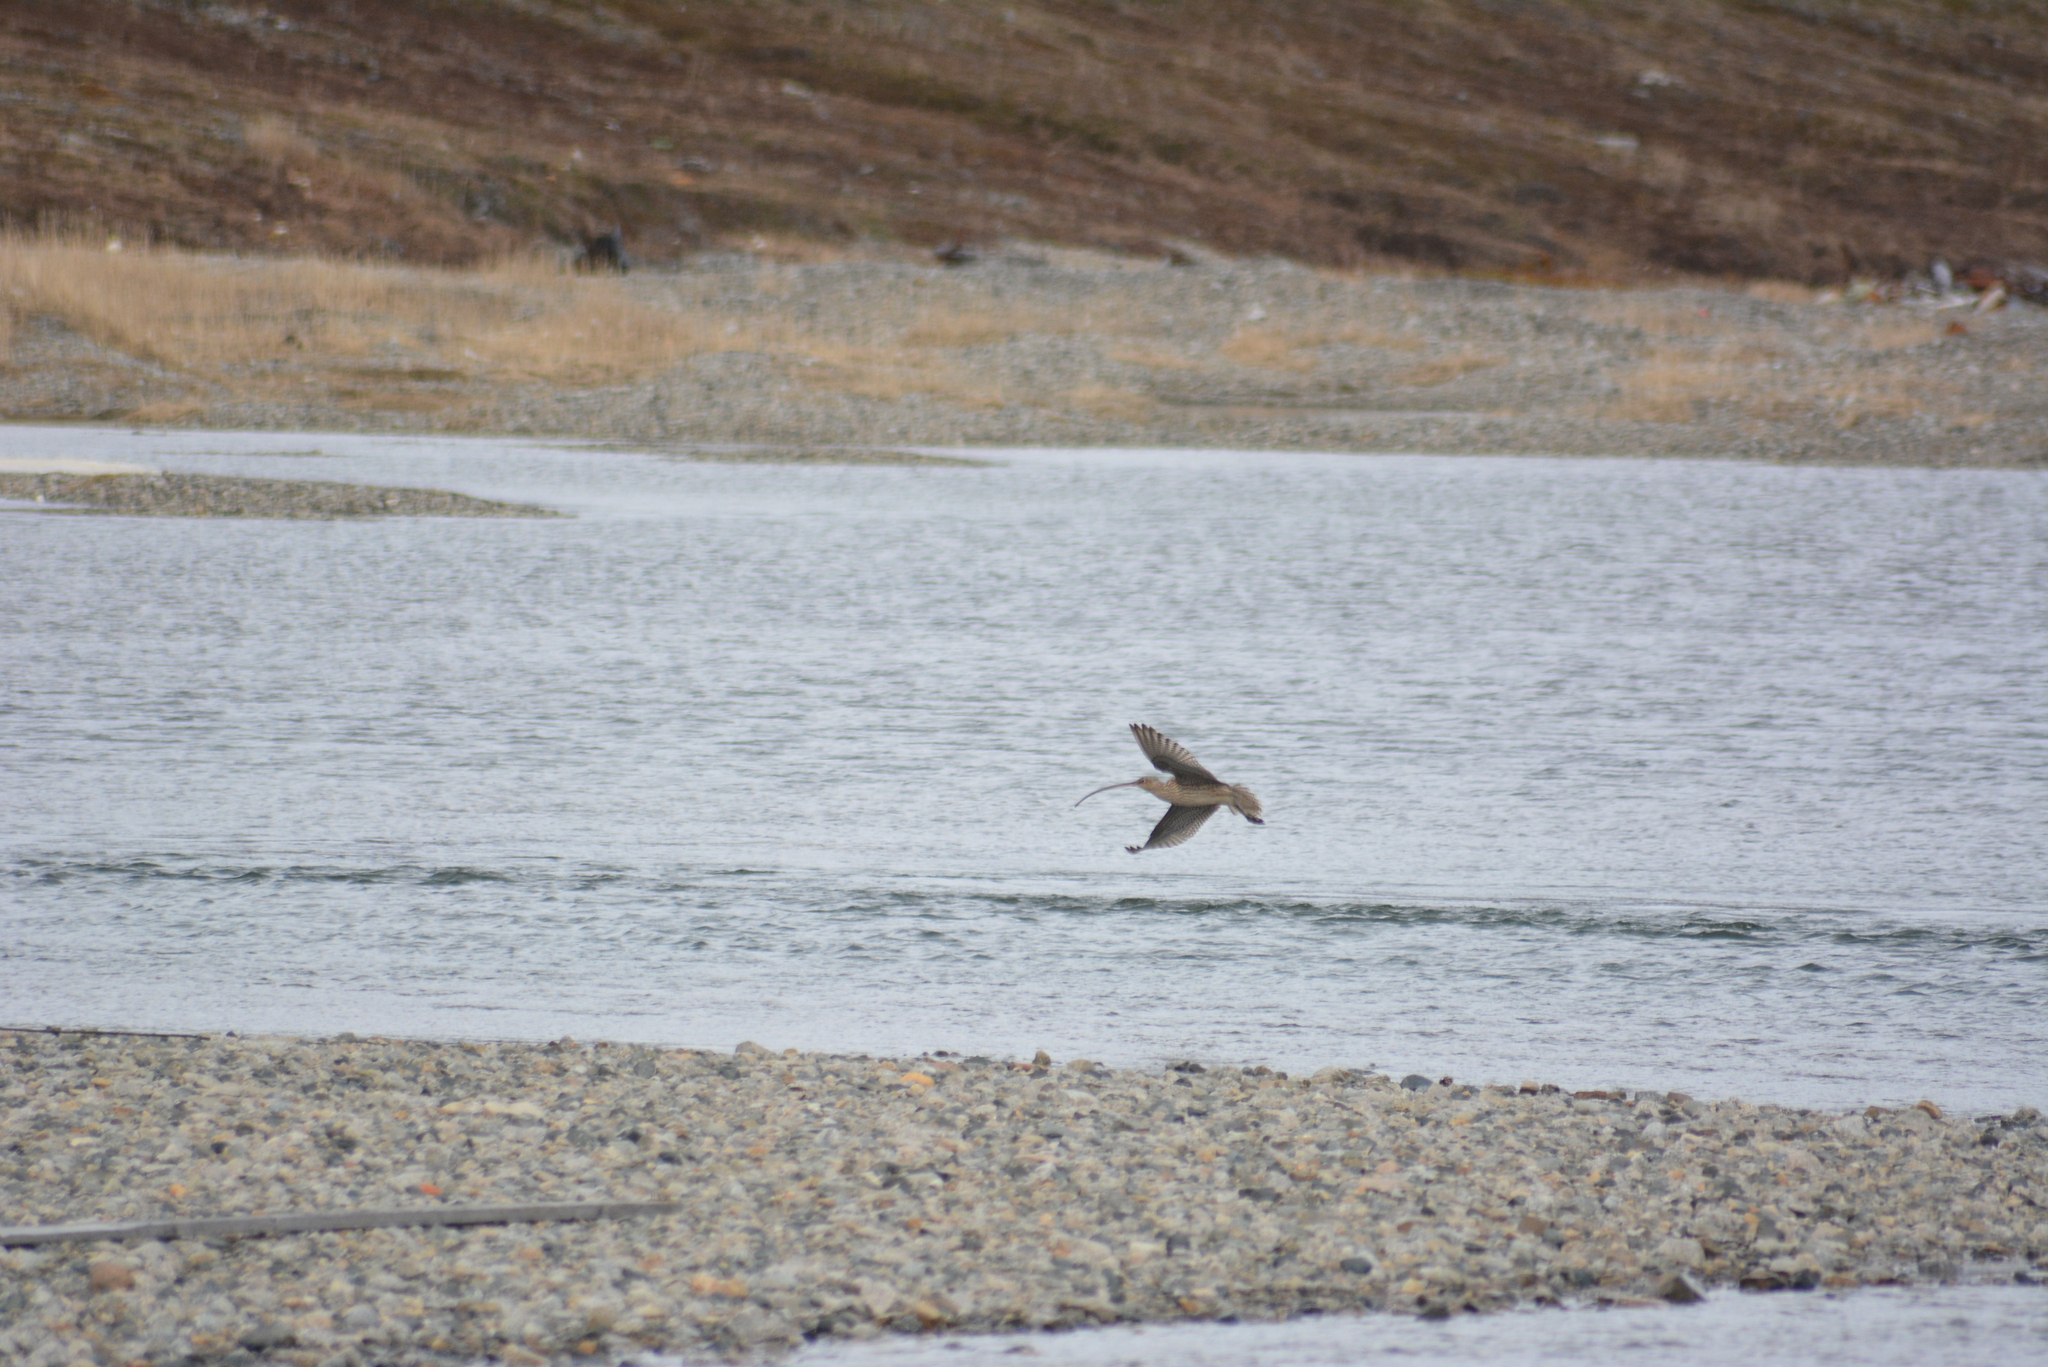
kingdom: Animalia
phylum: Chordata
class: Aves
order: Charadriiformes
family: Scolopacidae
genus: Numenius
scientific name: Numenius madagascariensis
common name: Far eastern curlew
